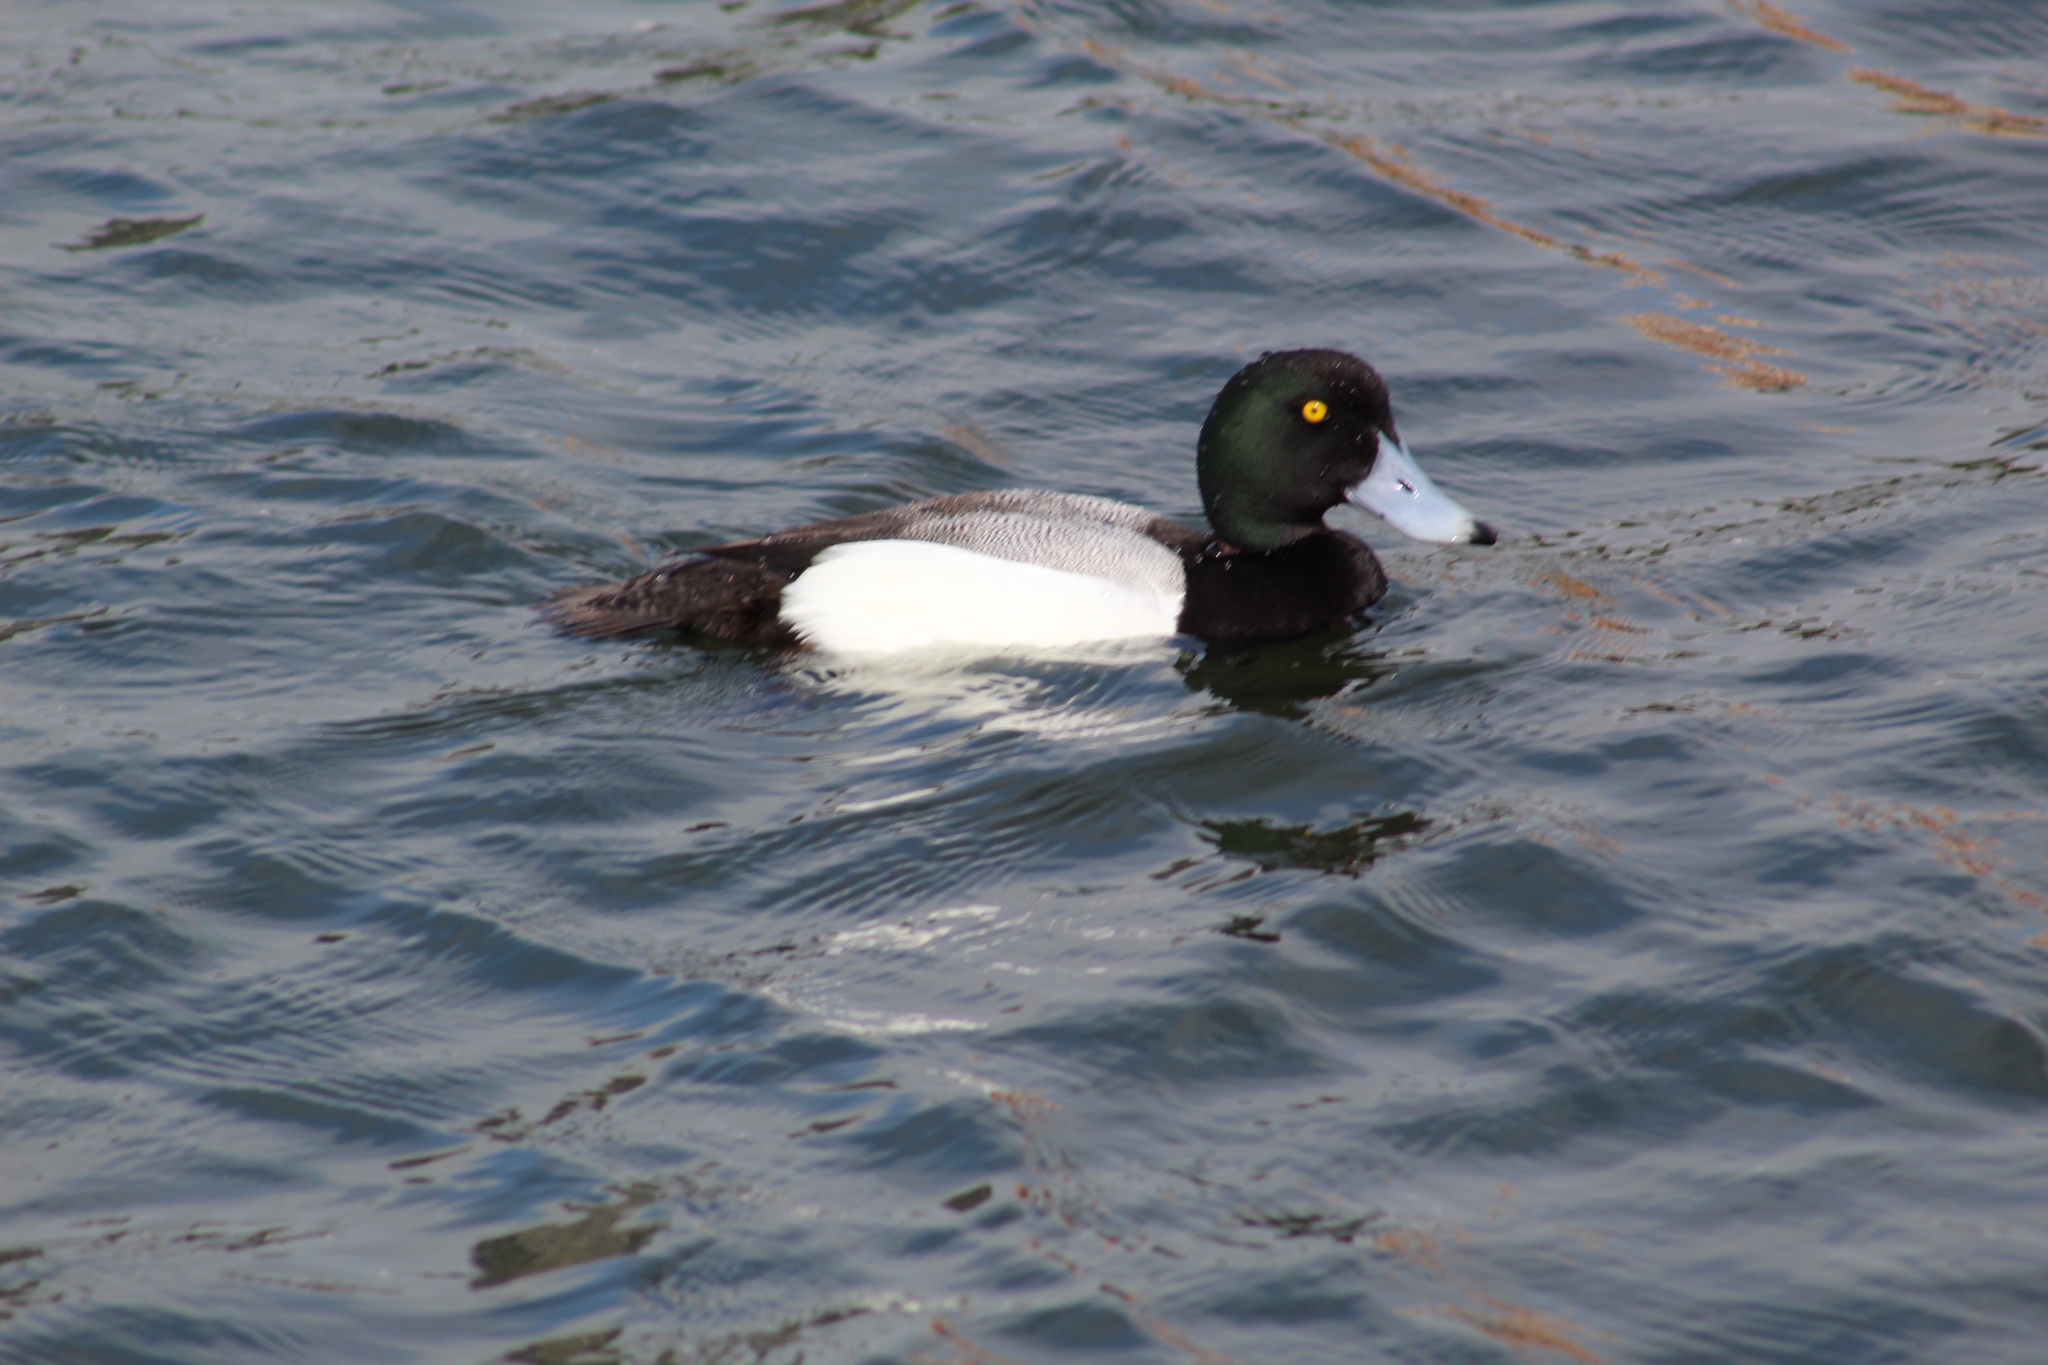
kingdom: Animalia
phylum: Chordata
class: Aves
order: Anseriformes
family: Anatidae
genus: Aythya
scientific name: Aythya marila
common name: Greater scaup
